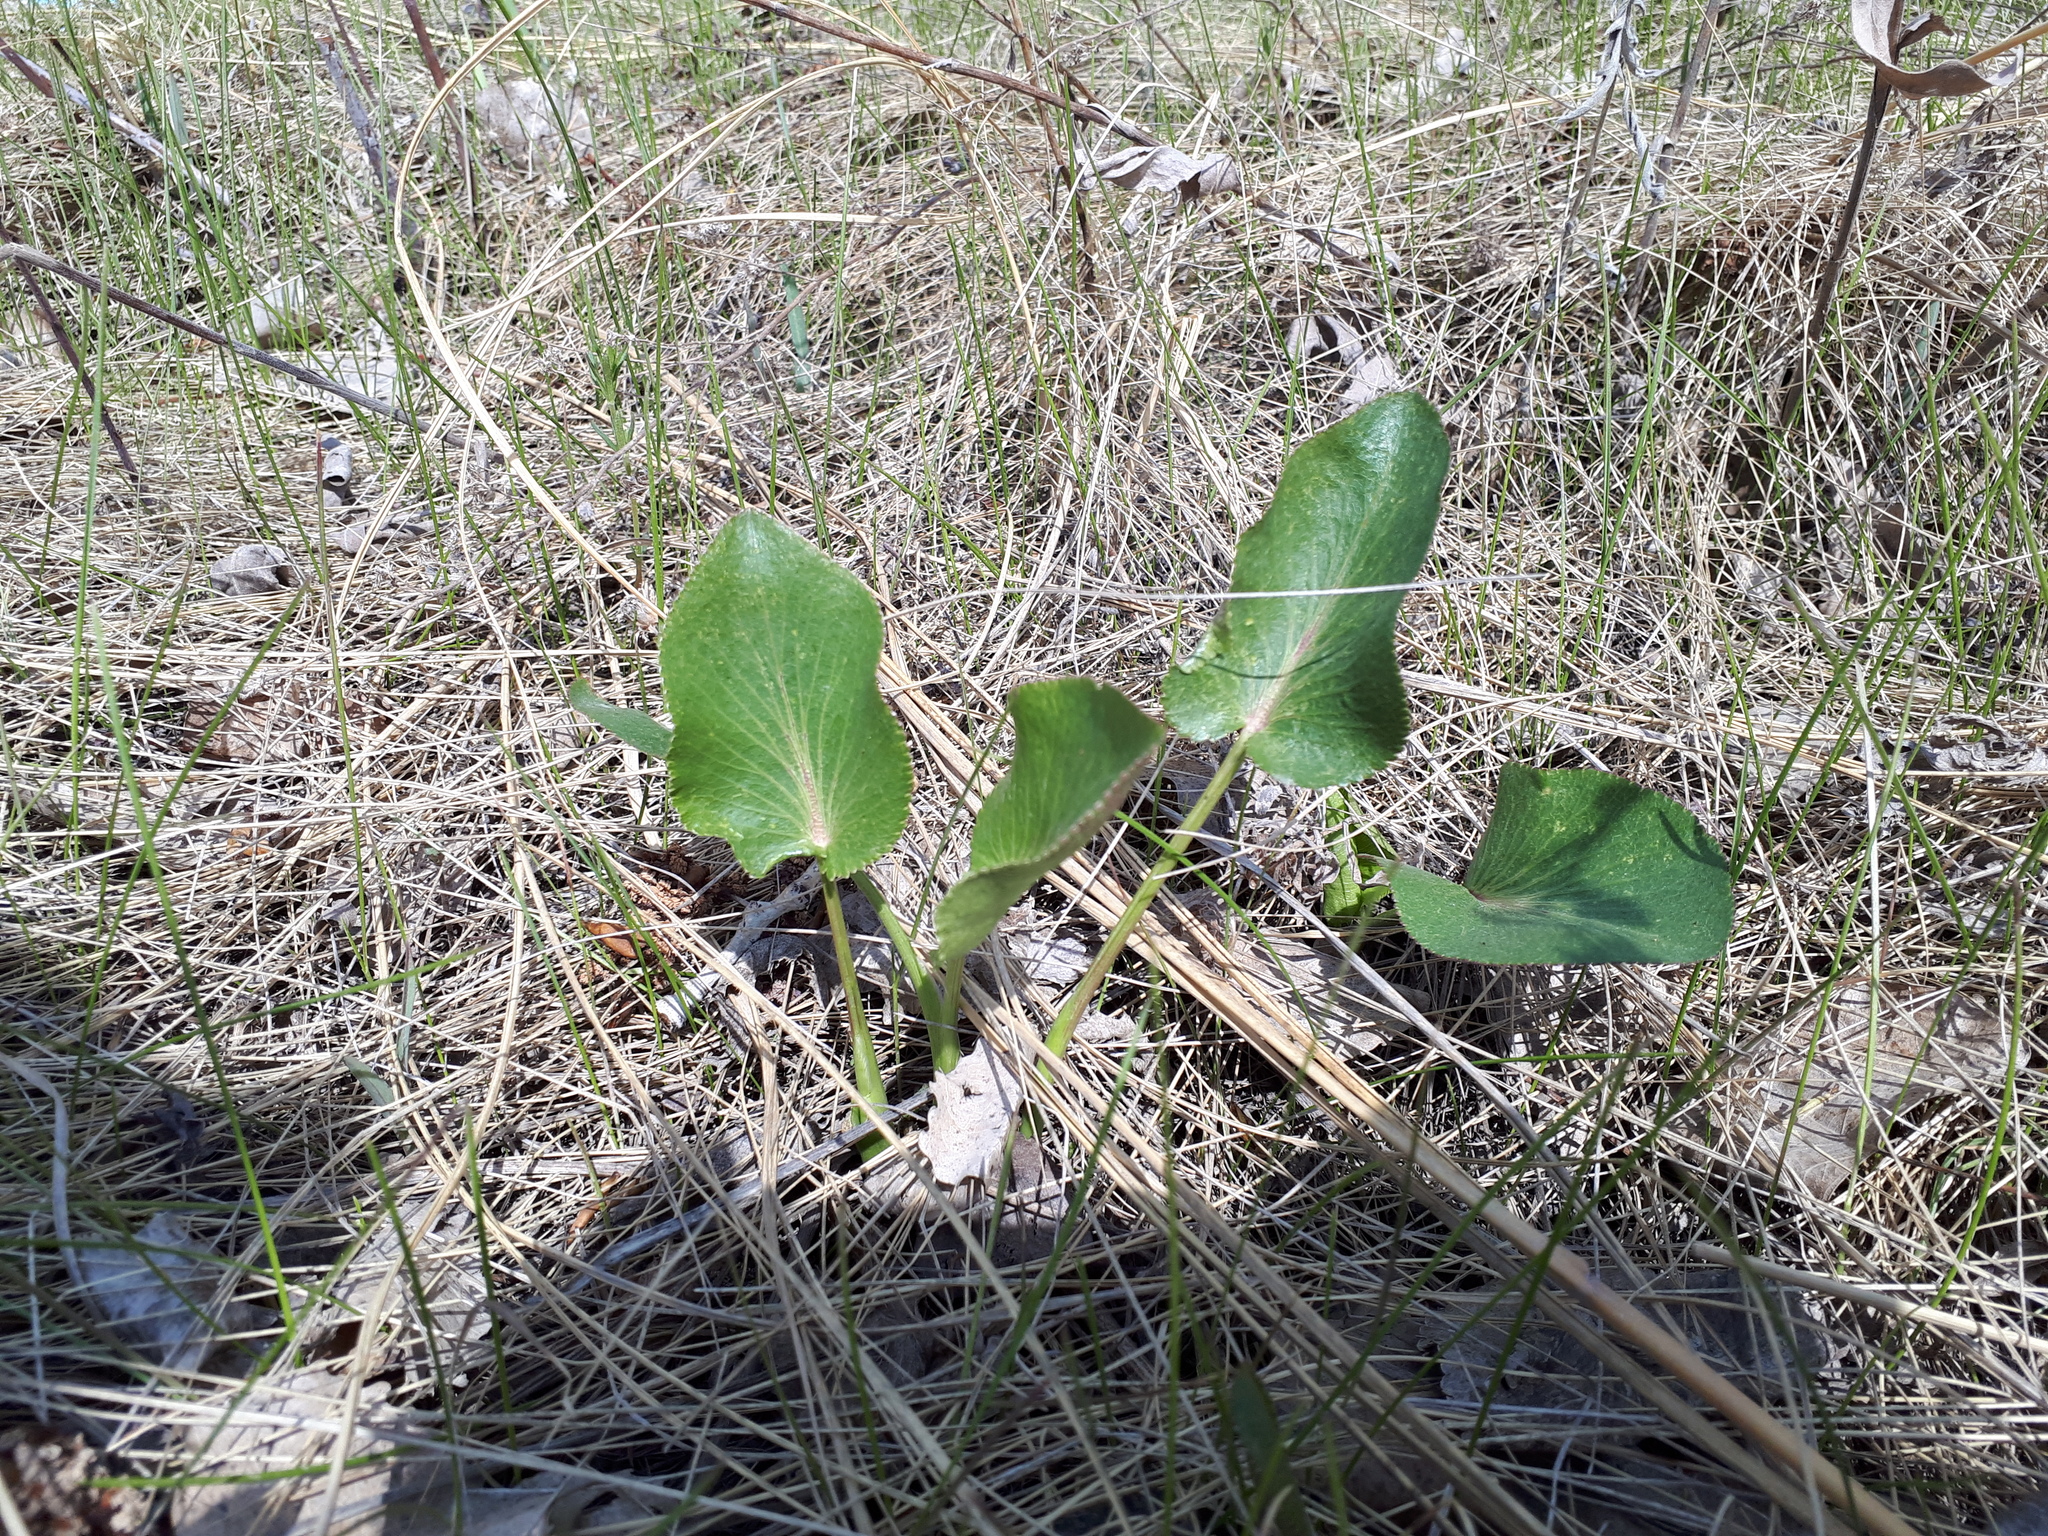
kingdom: Plantae
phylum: Tracheophyta
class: Magnoliopsida
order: Apiales
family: Apiaceae
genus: Zizia
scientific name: Zizia aptera
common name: Heart-leaved alexanders
